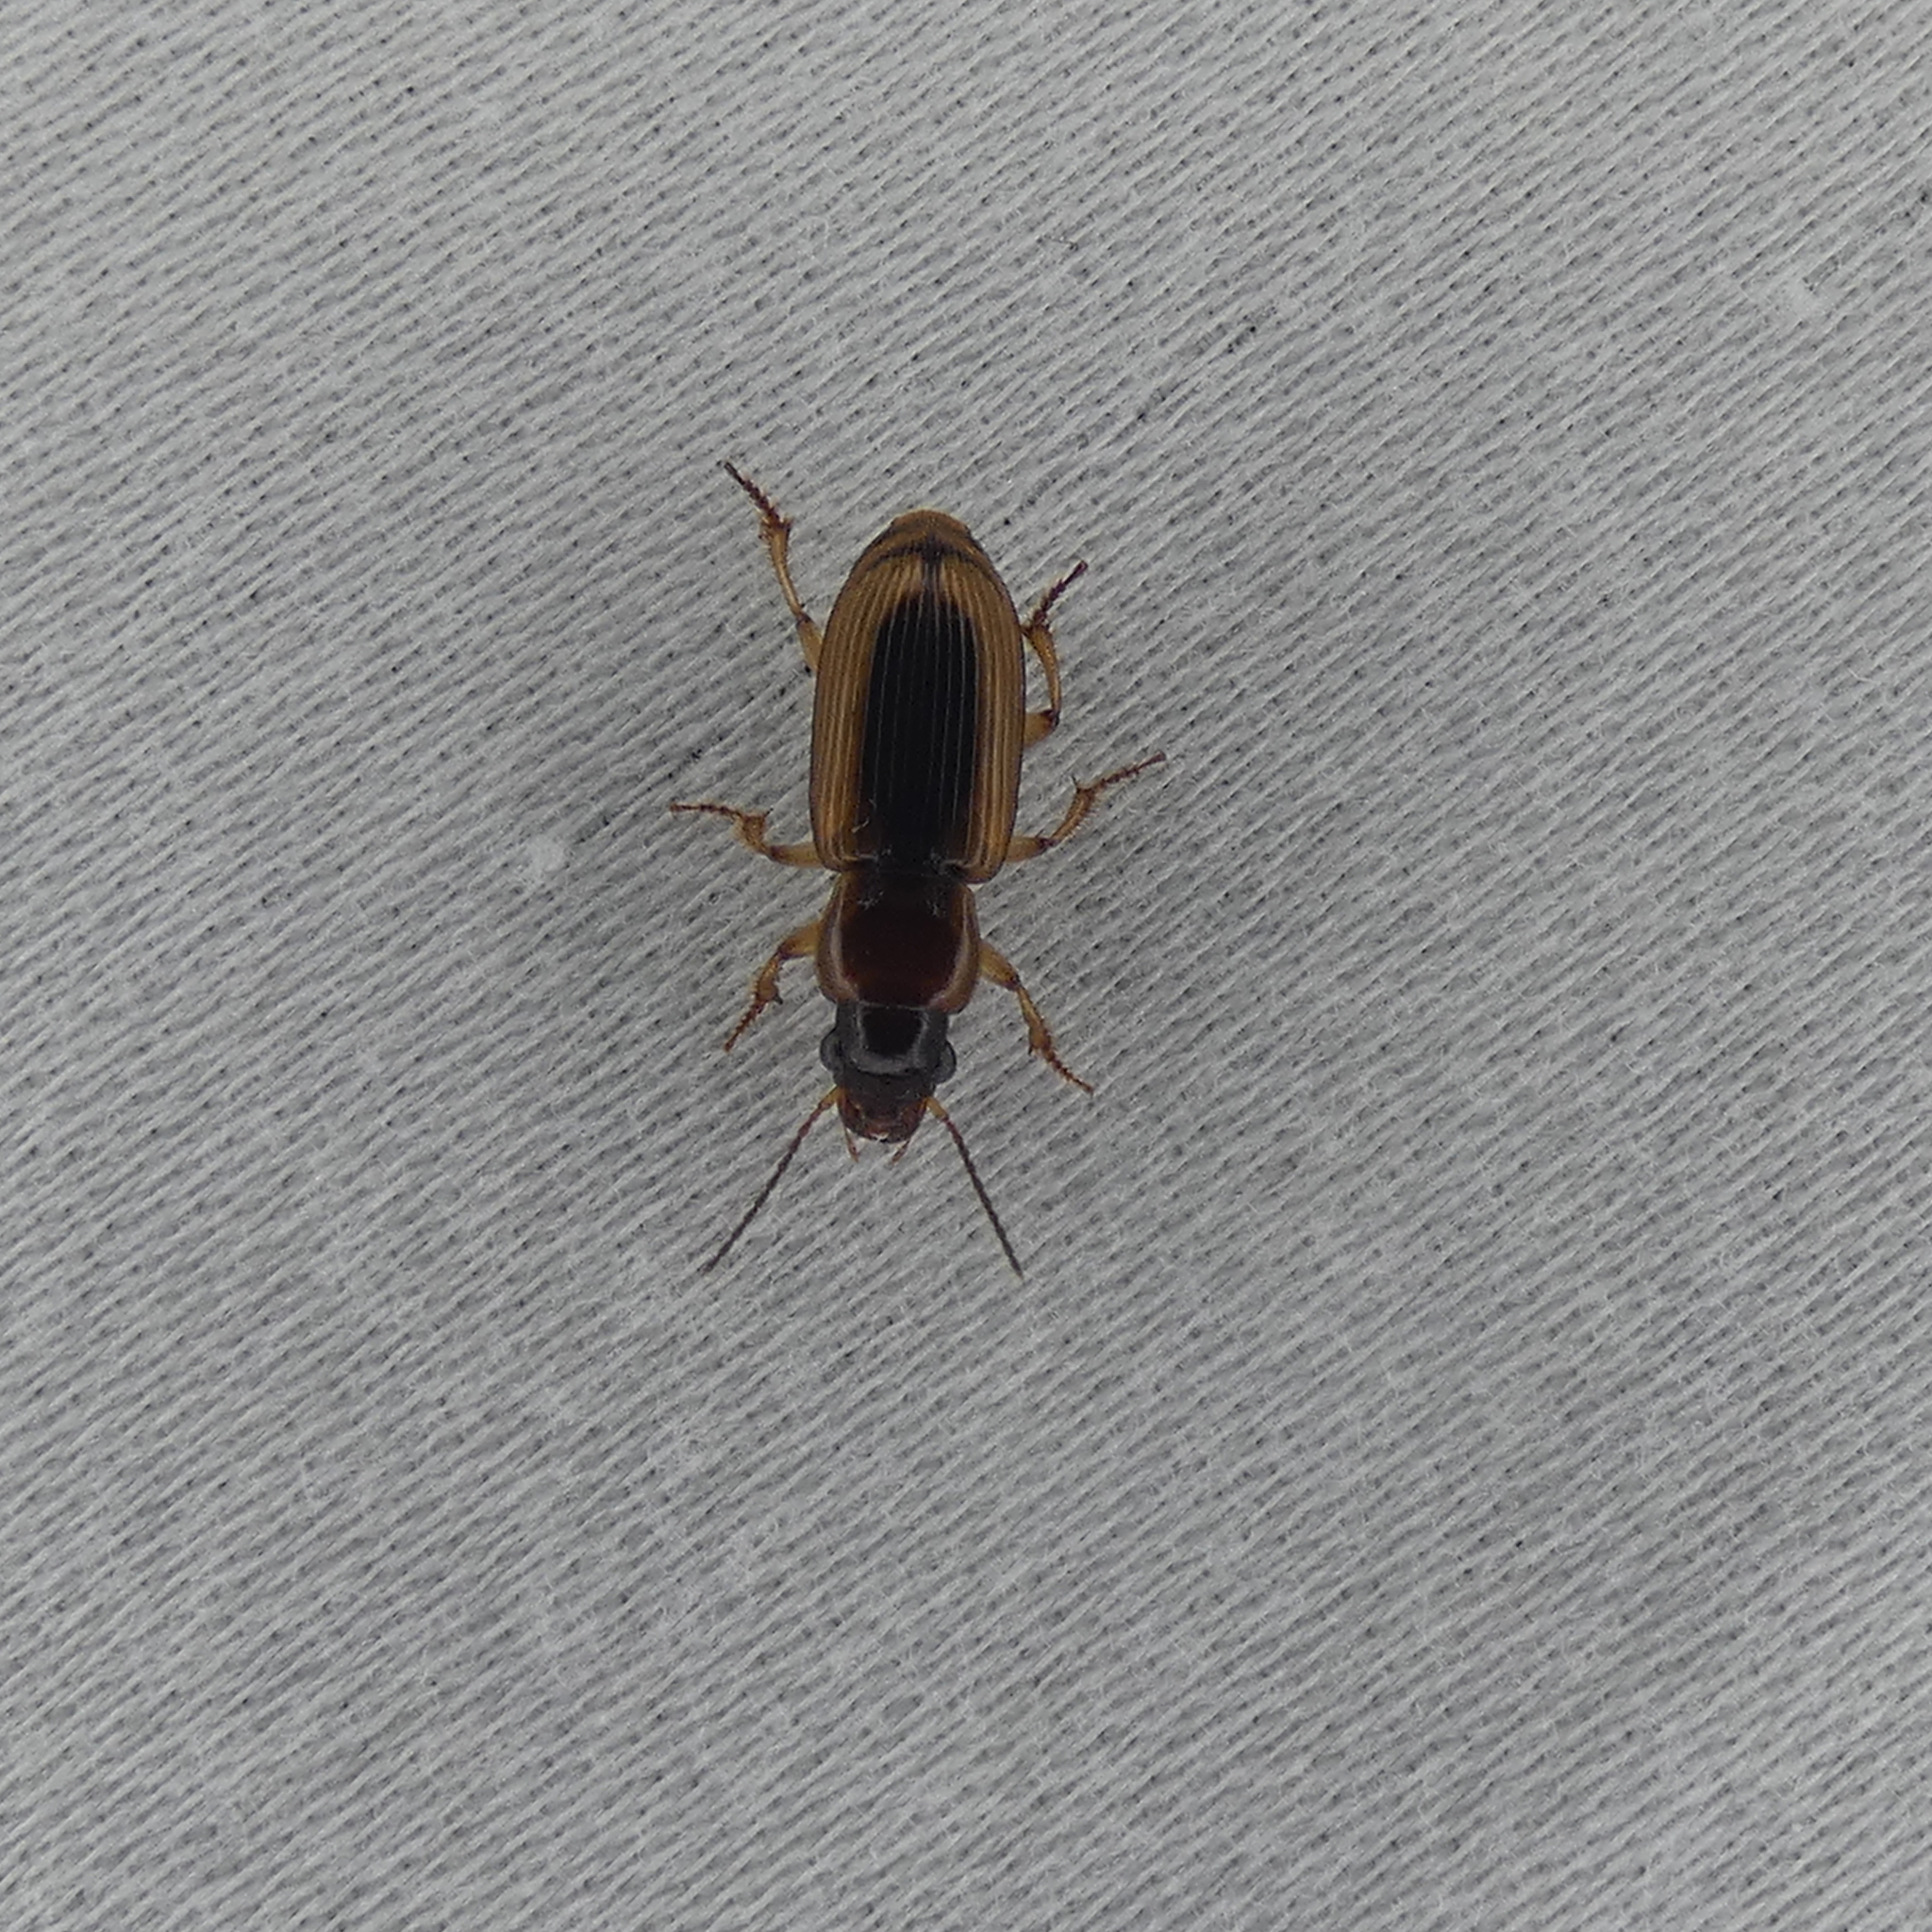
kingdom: Animalia
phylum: Arthropoda
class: Insecta
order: Coleoptera
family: Carabidae
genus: Stenolophus
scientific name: Stenolophus lecontei
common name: Leconte's seedcorn beetle
